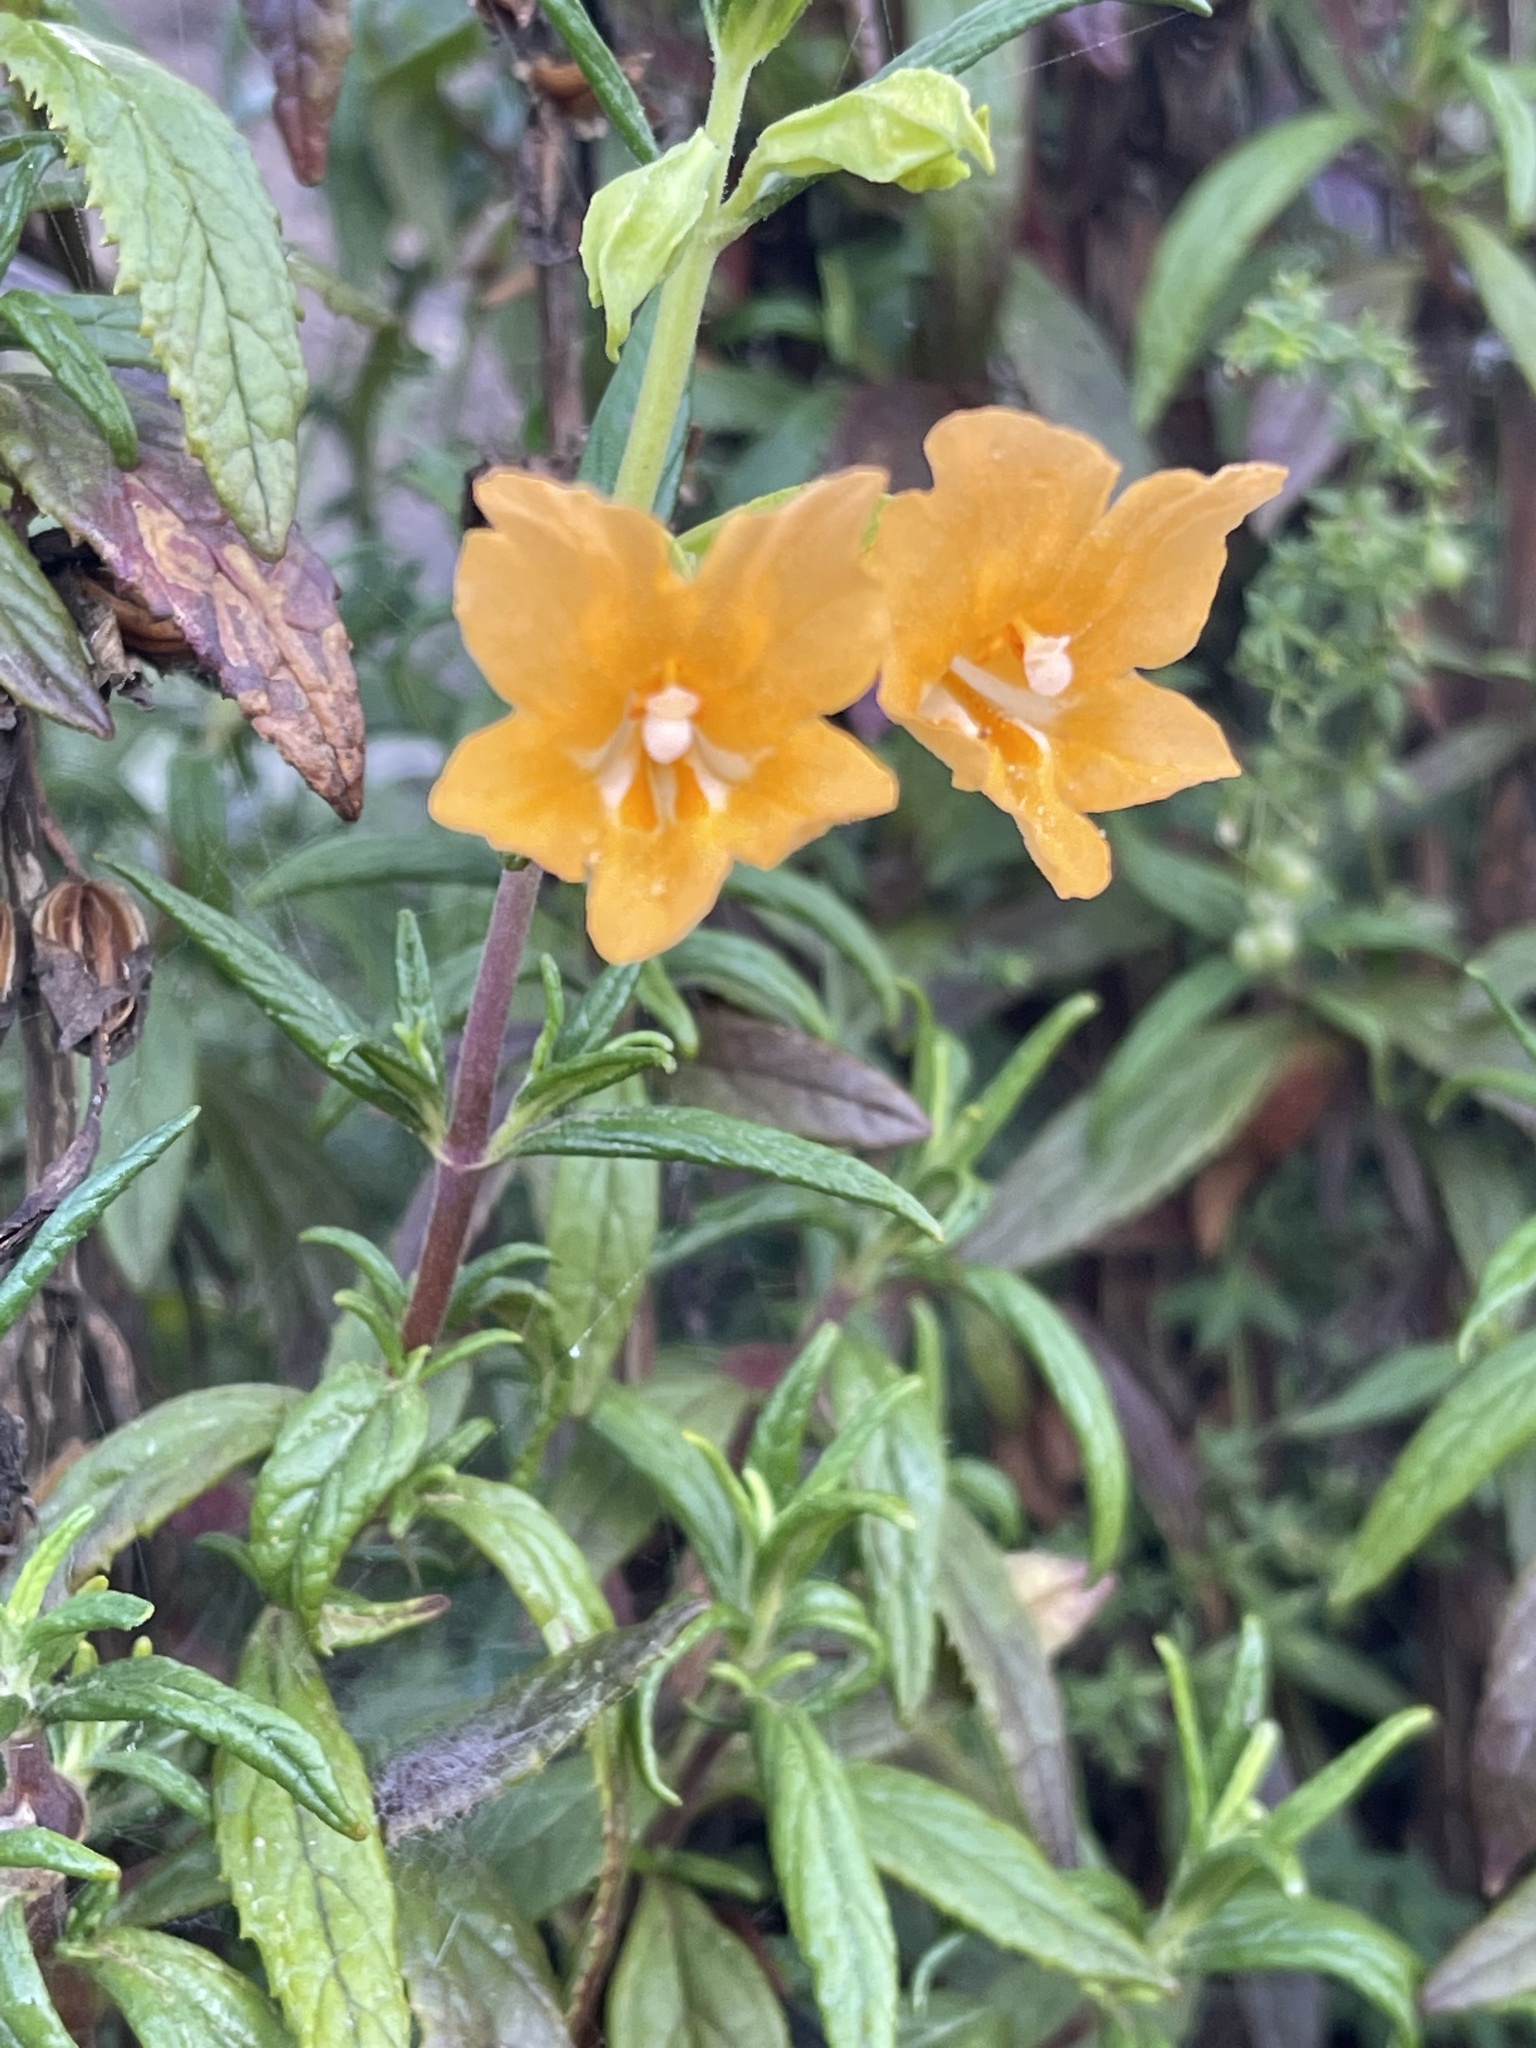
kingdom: Plantae
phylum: Tracheophyta
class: Magnoliopsida
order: Lamiales
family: Phrymaceae
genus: Diplacus
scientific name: Diplacus aurantiacus
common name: Bush monkey-flower
